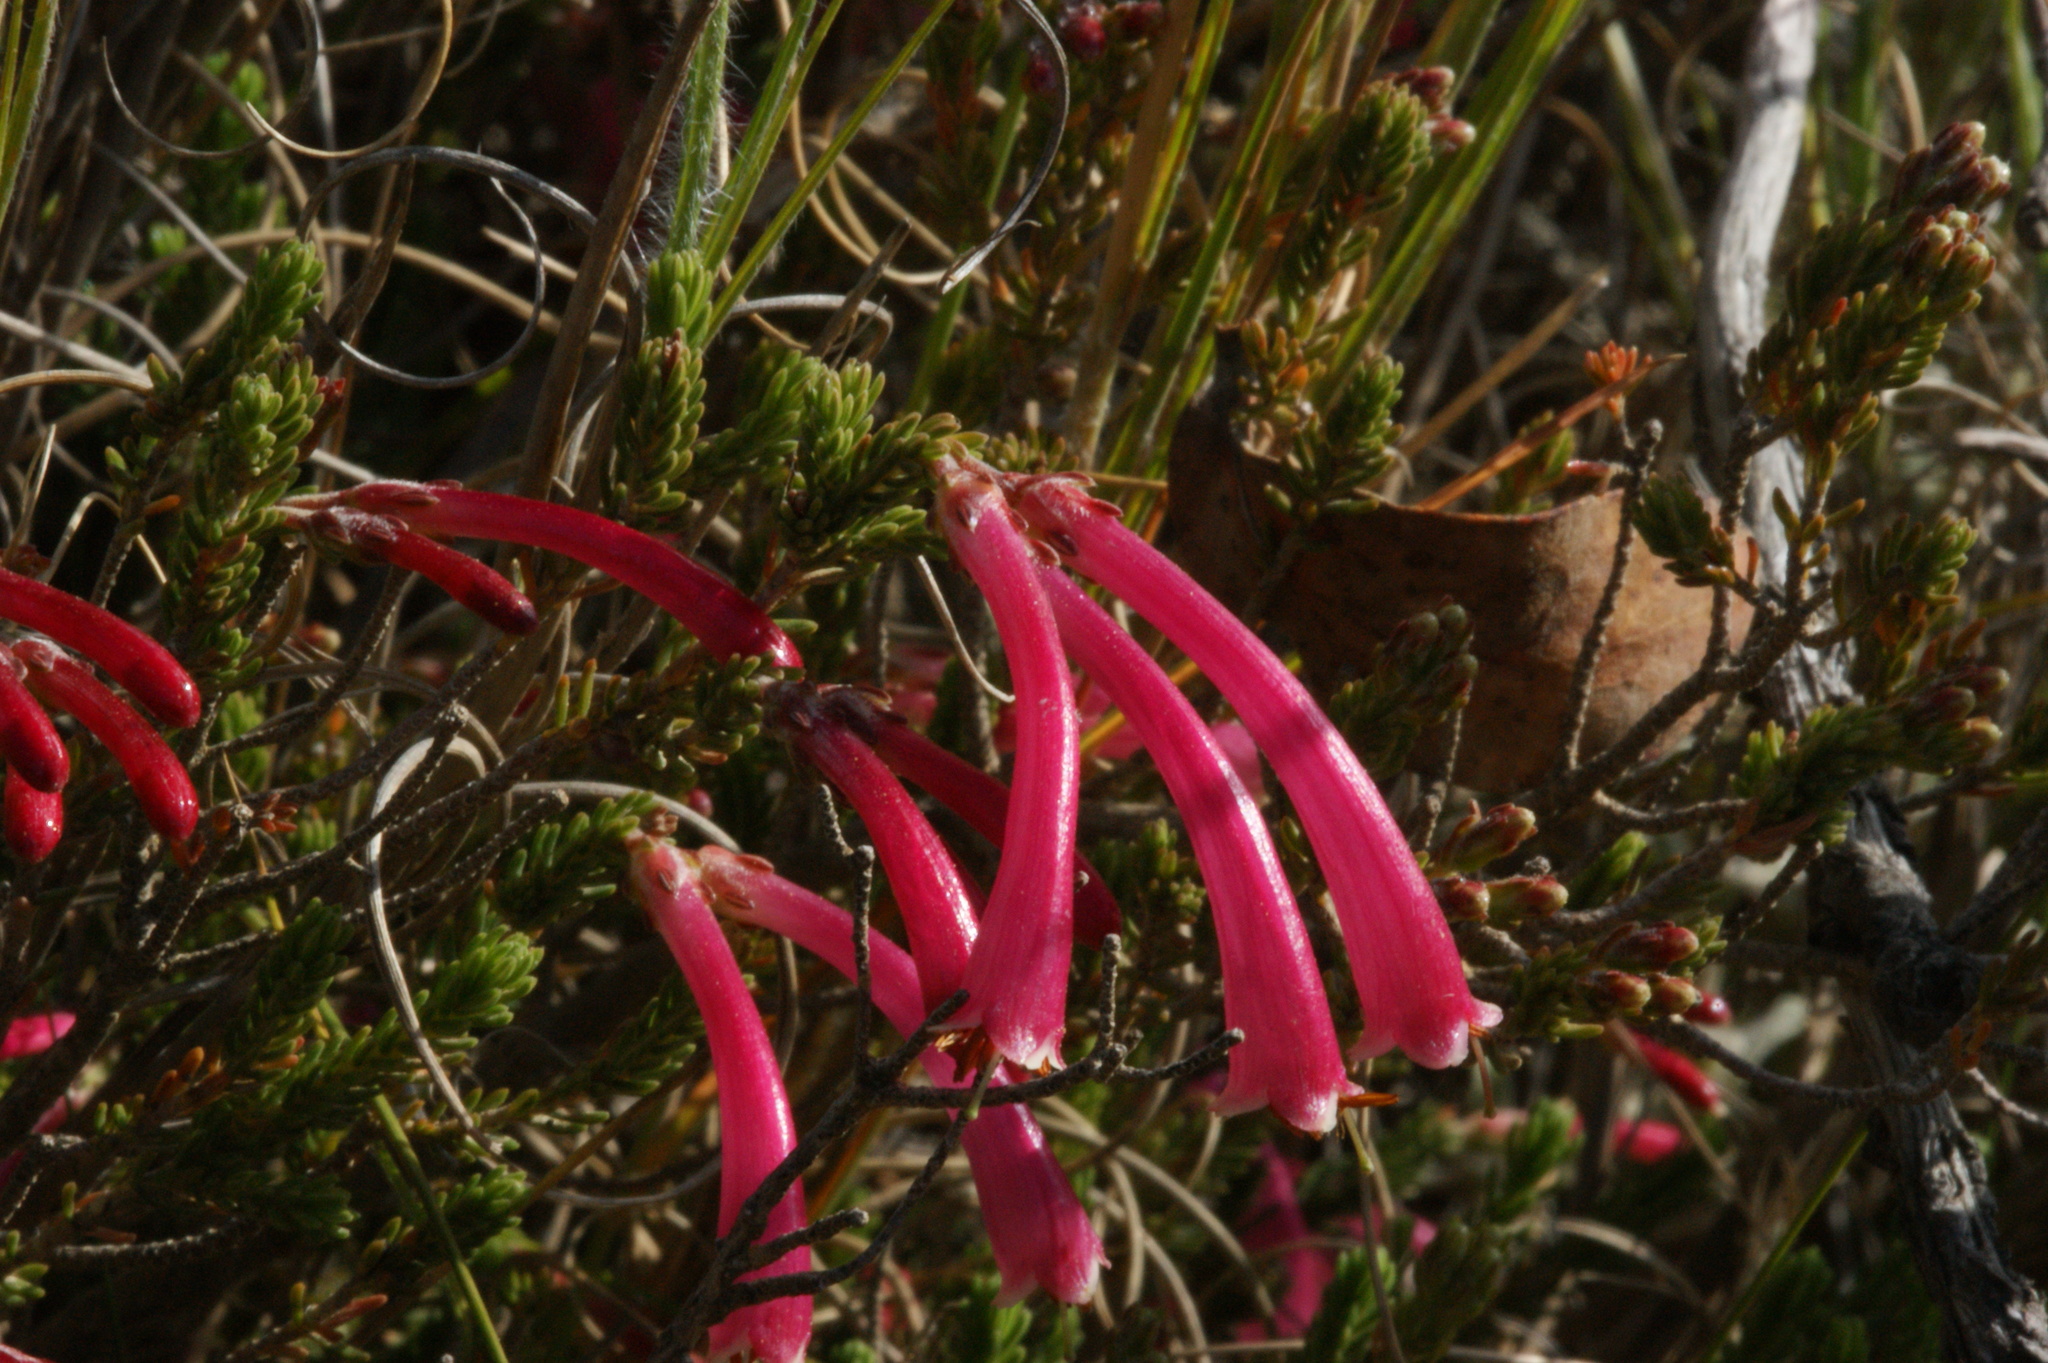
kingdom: Plantae
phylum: Tracheophyta
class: Magnoliopsida
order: Ericales
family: Ericaceae
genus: Erica
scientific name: Erica discolor
